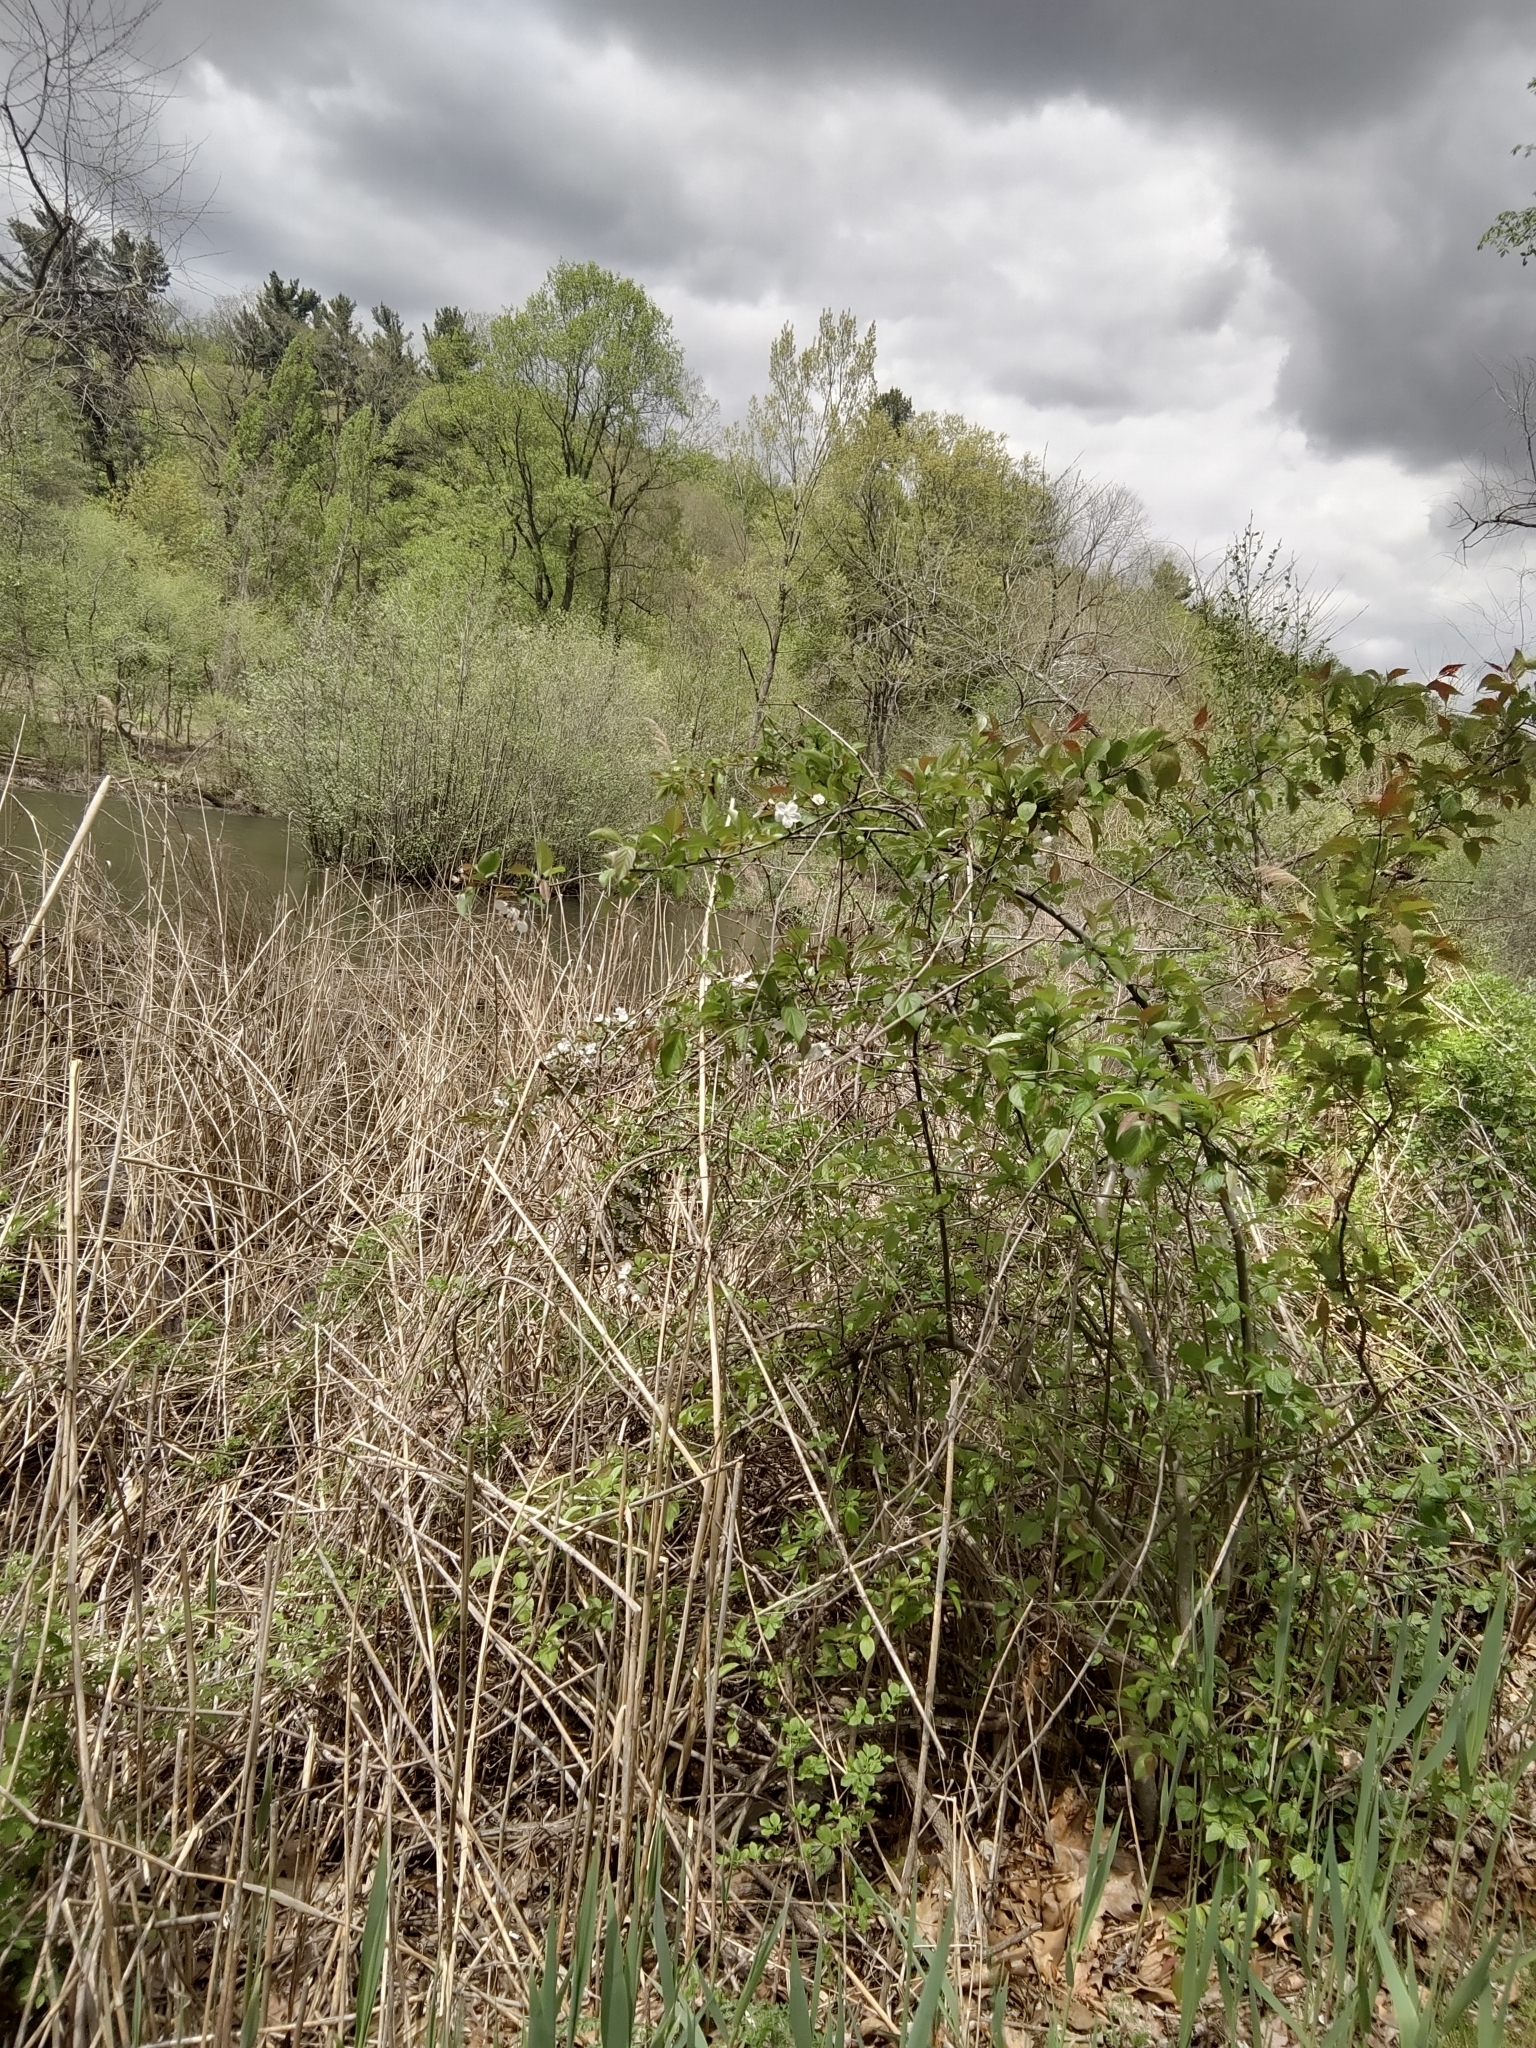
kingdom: Plantae
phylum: Tracheophyta
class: Liliopsida
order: Poales
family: Poaceae
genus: Phragmites
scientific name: Phragmites australis
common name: Common reed
